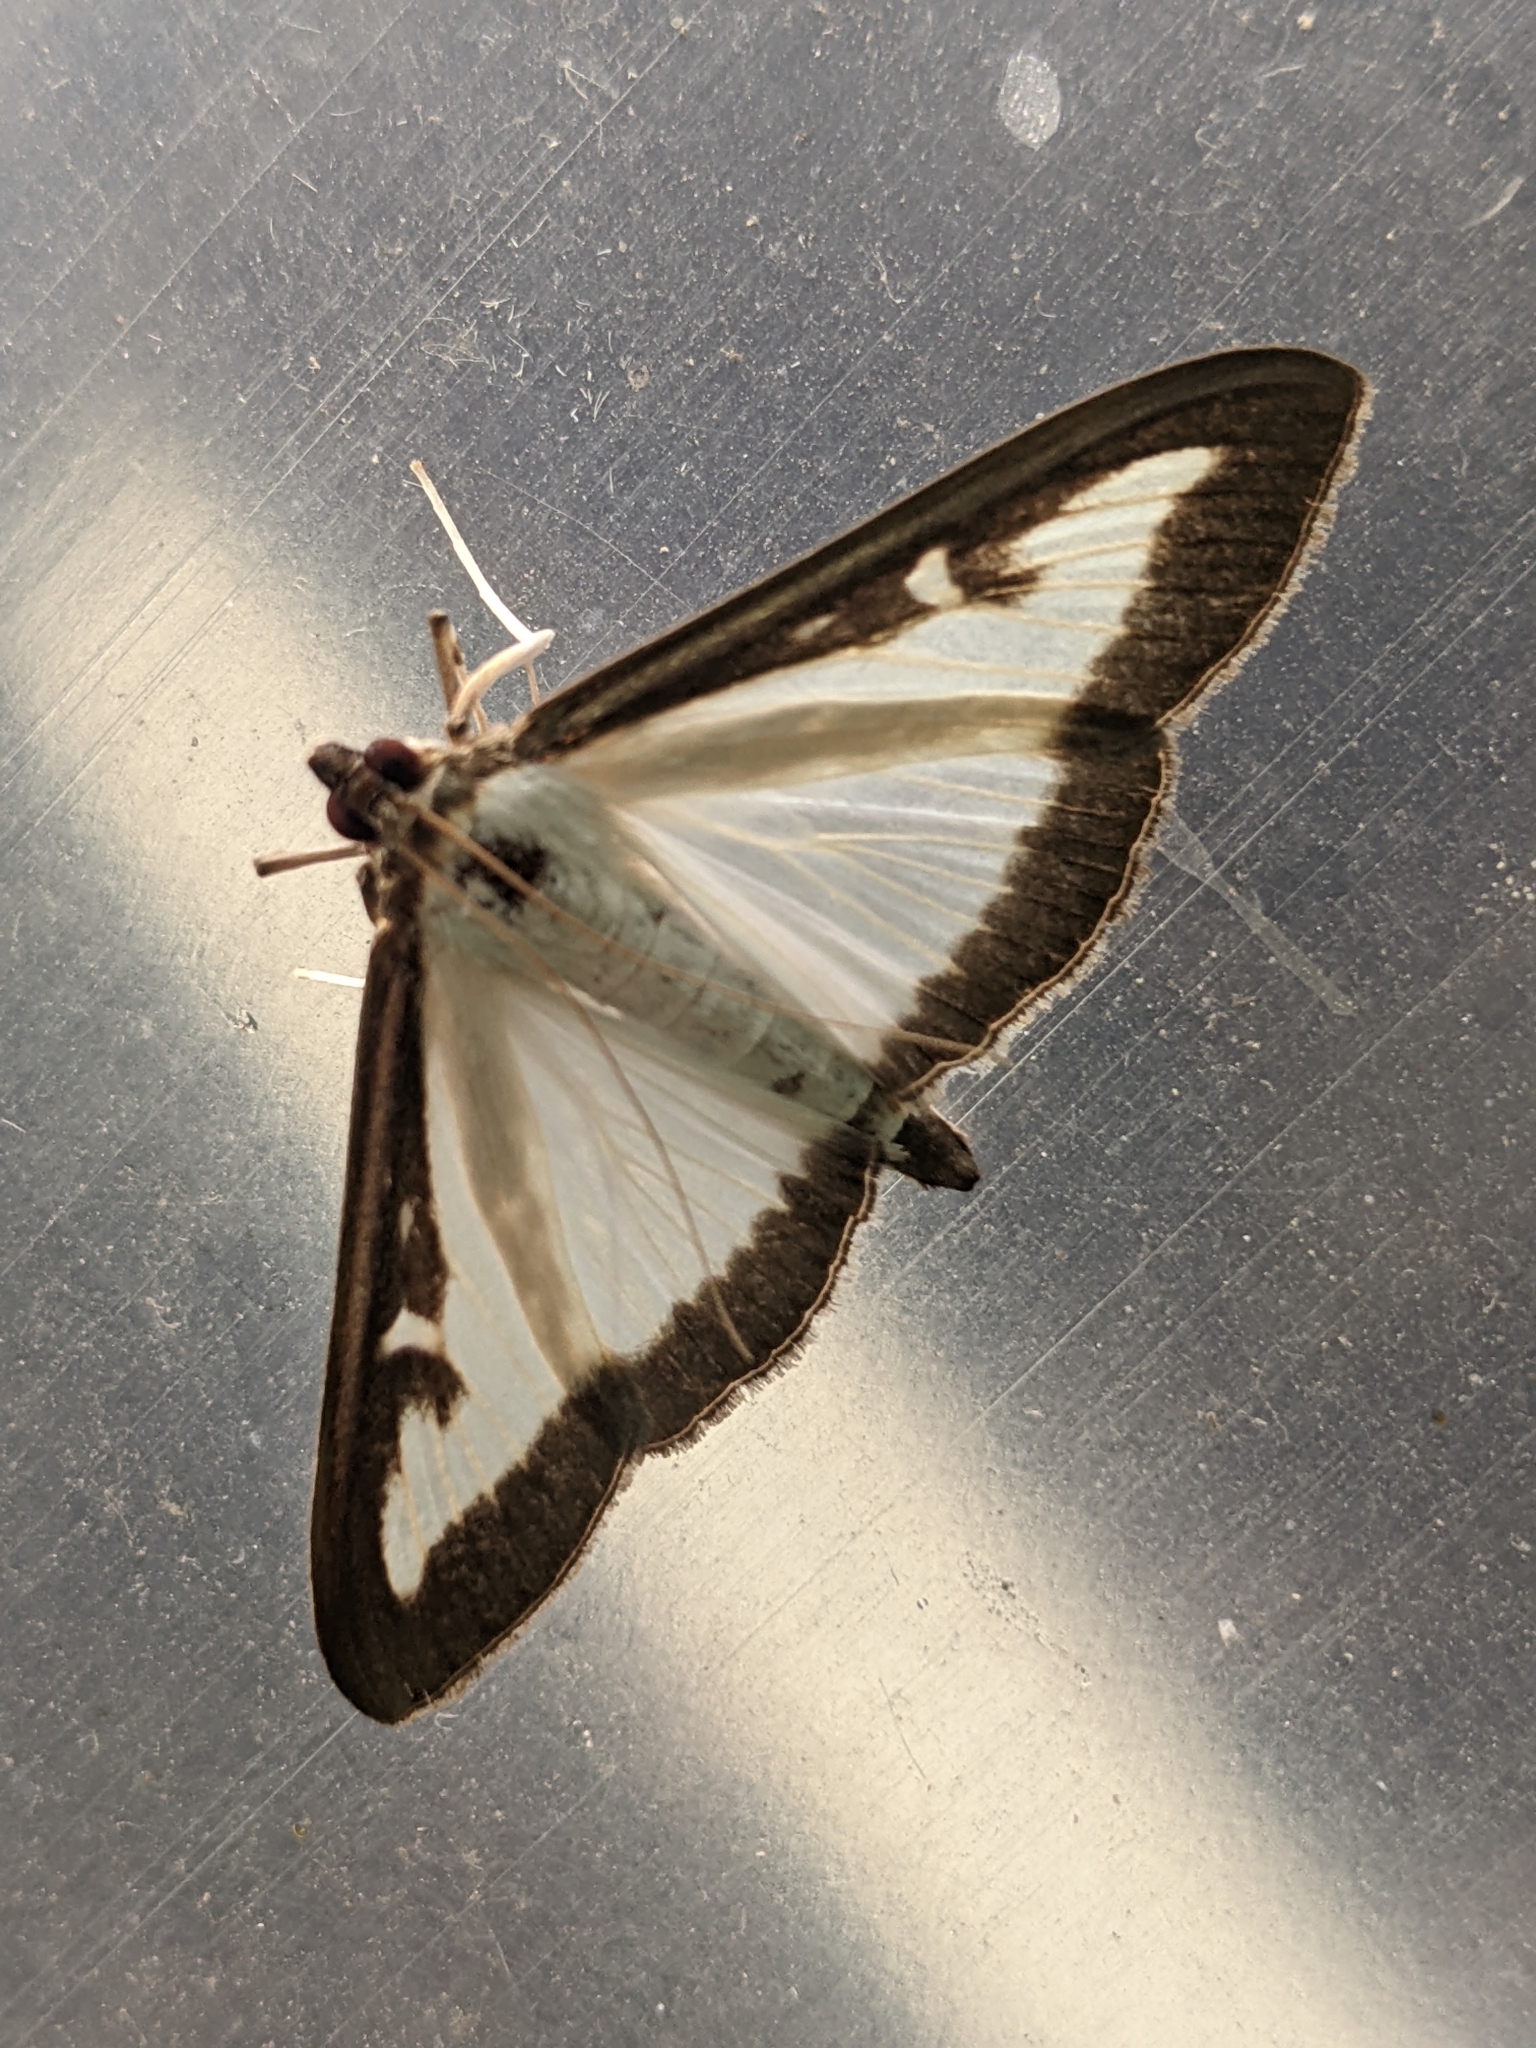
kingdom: Animalia
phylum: Arthropoda
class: Insecta
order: Lepidoptera
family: Crambidae
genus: Cydalima
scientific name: Cydalima perspectalis
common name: Box tree moth
